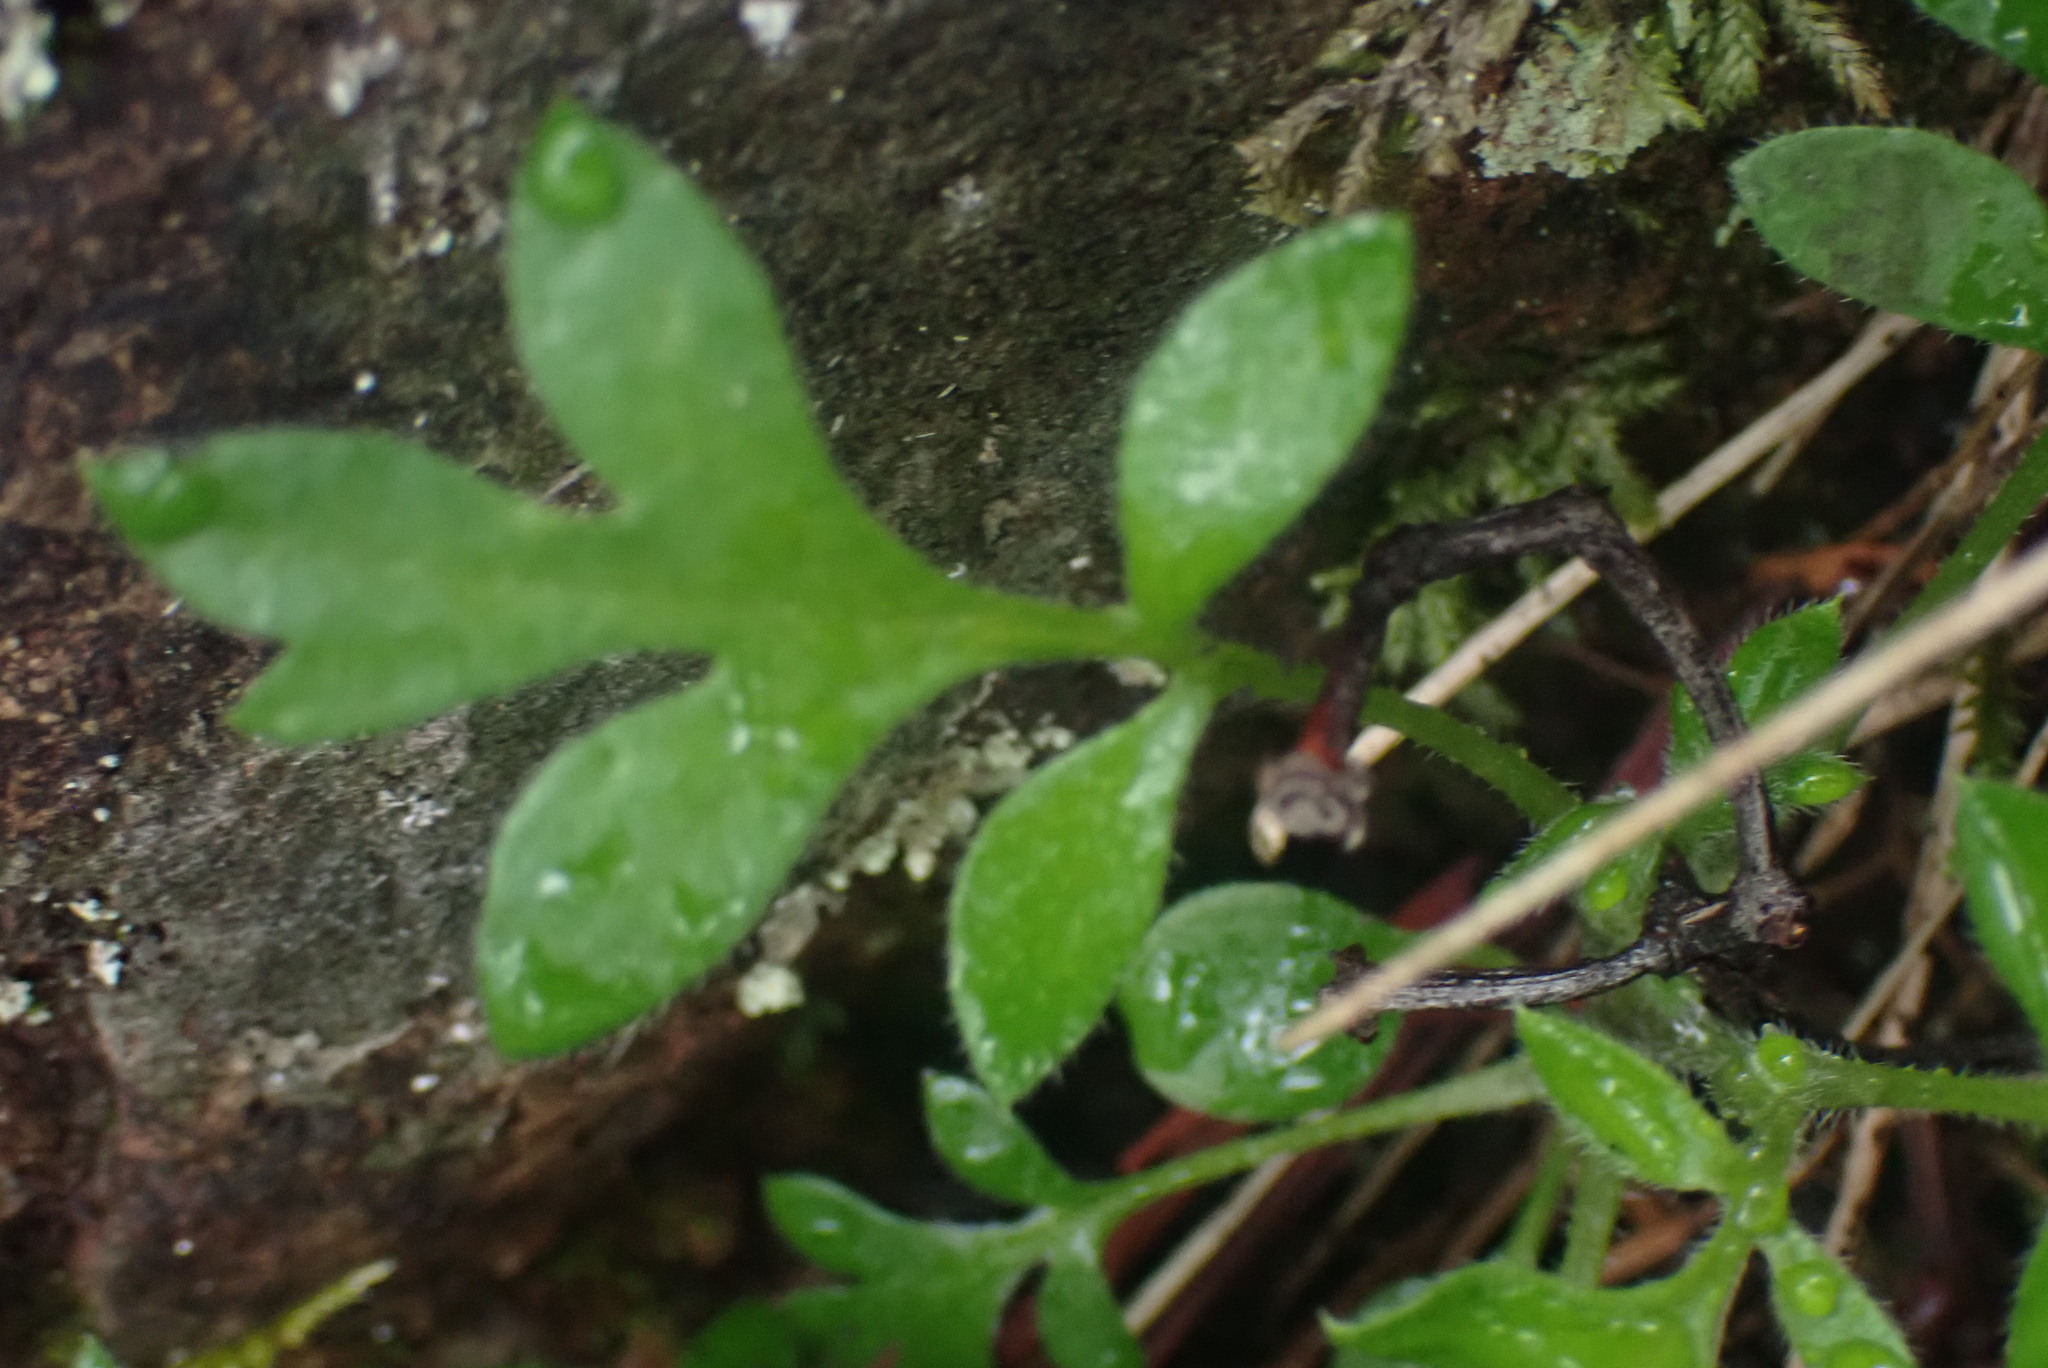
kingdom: Plantae
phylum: Tracheophyta
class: Magnoliopsida
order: Boraginales
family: Hydrophyllaceae
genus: Nemophila
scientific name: Nemophila parviflora
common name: Small-flowered baby-blue-eyes
